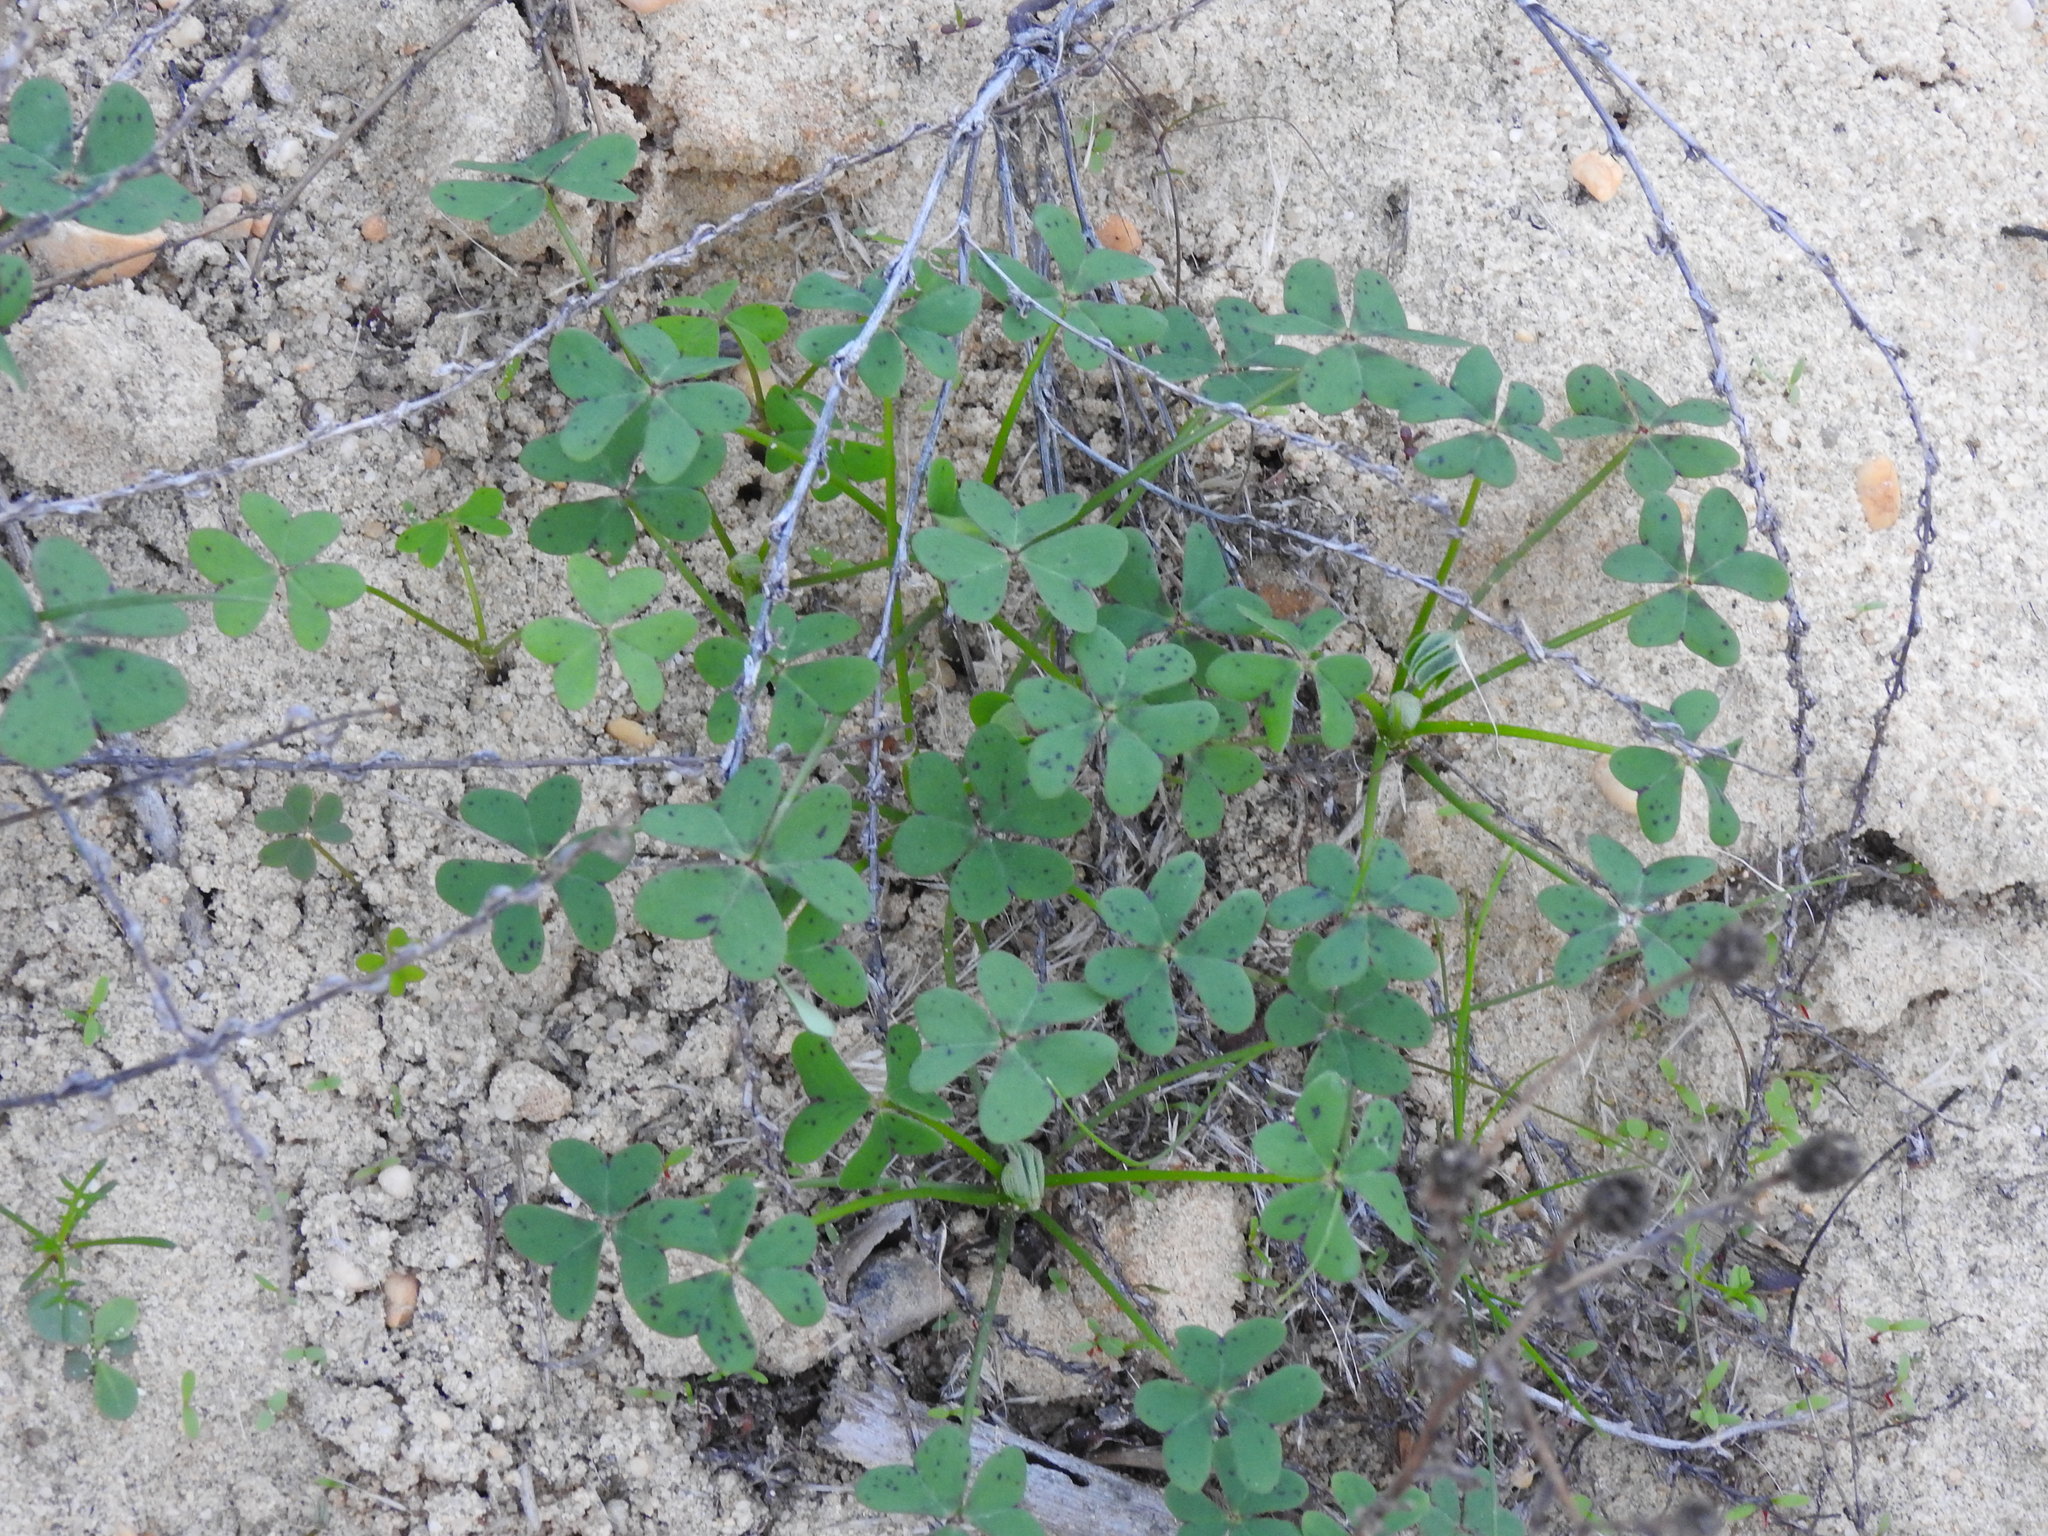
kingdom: Plantae
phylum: Tracheophyta
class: Magnoliopsida
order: Oxalidales
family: Oxalidaceae
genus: Oxalis
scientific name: Oxalis pes-caprae
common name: Bermuda-buttercup
